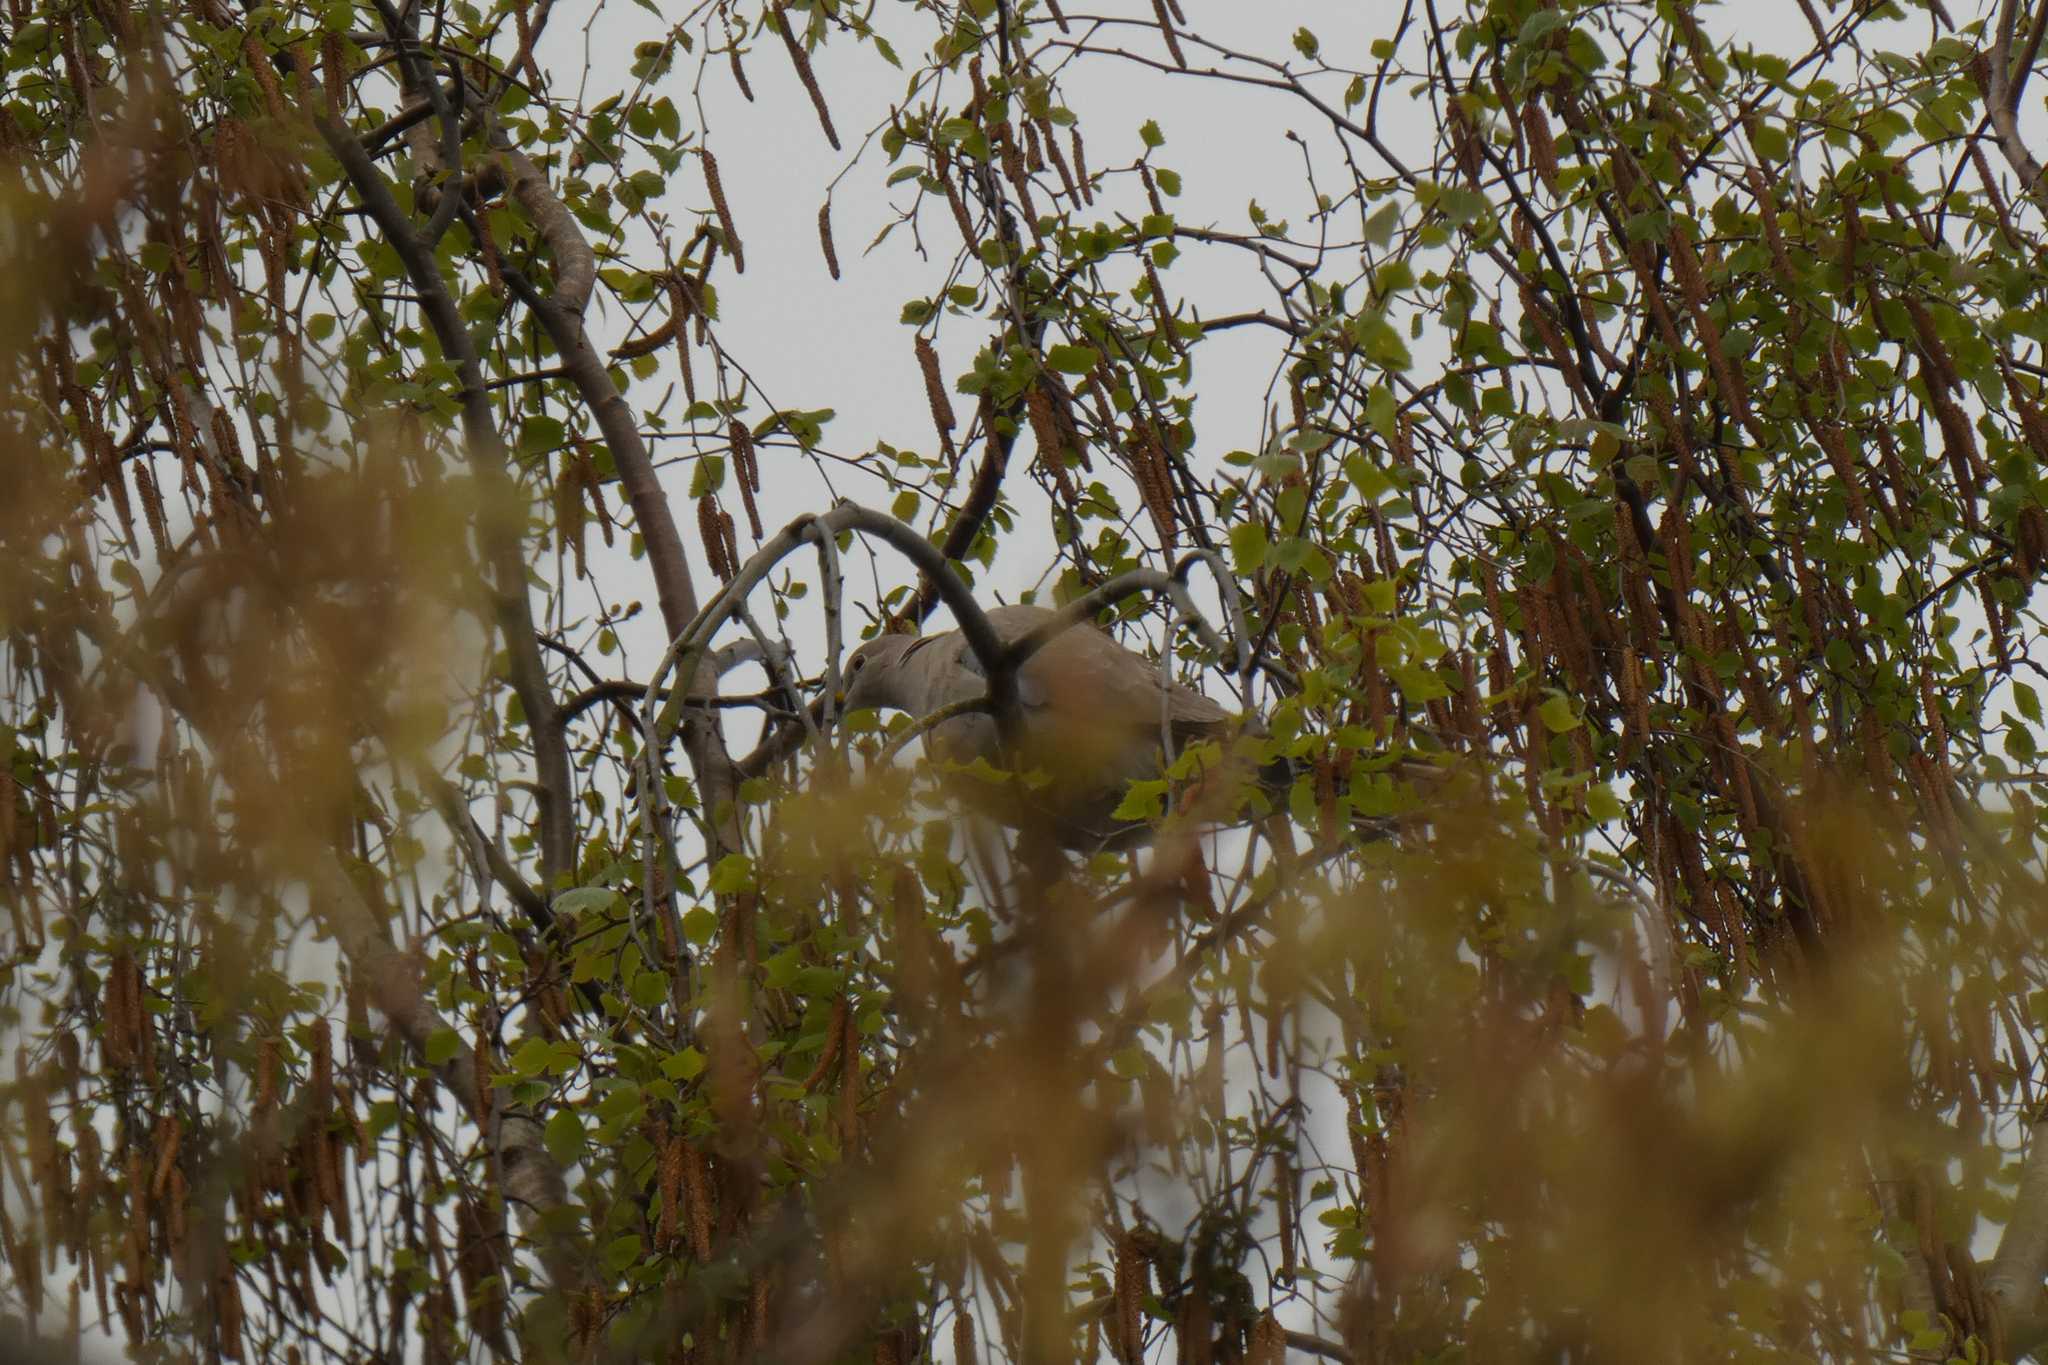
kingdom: Animalia
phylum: Chordata
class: Aves
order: Columbiformes
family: Columbidae
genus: Streptopelia
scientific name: Streptopelia decaocto
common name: Eurasian collared dove
